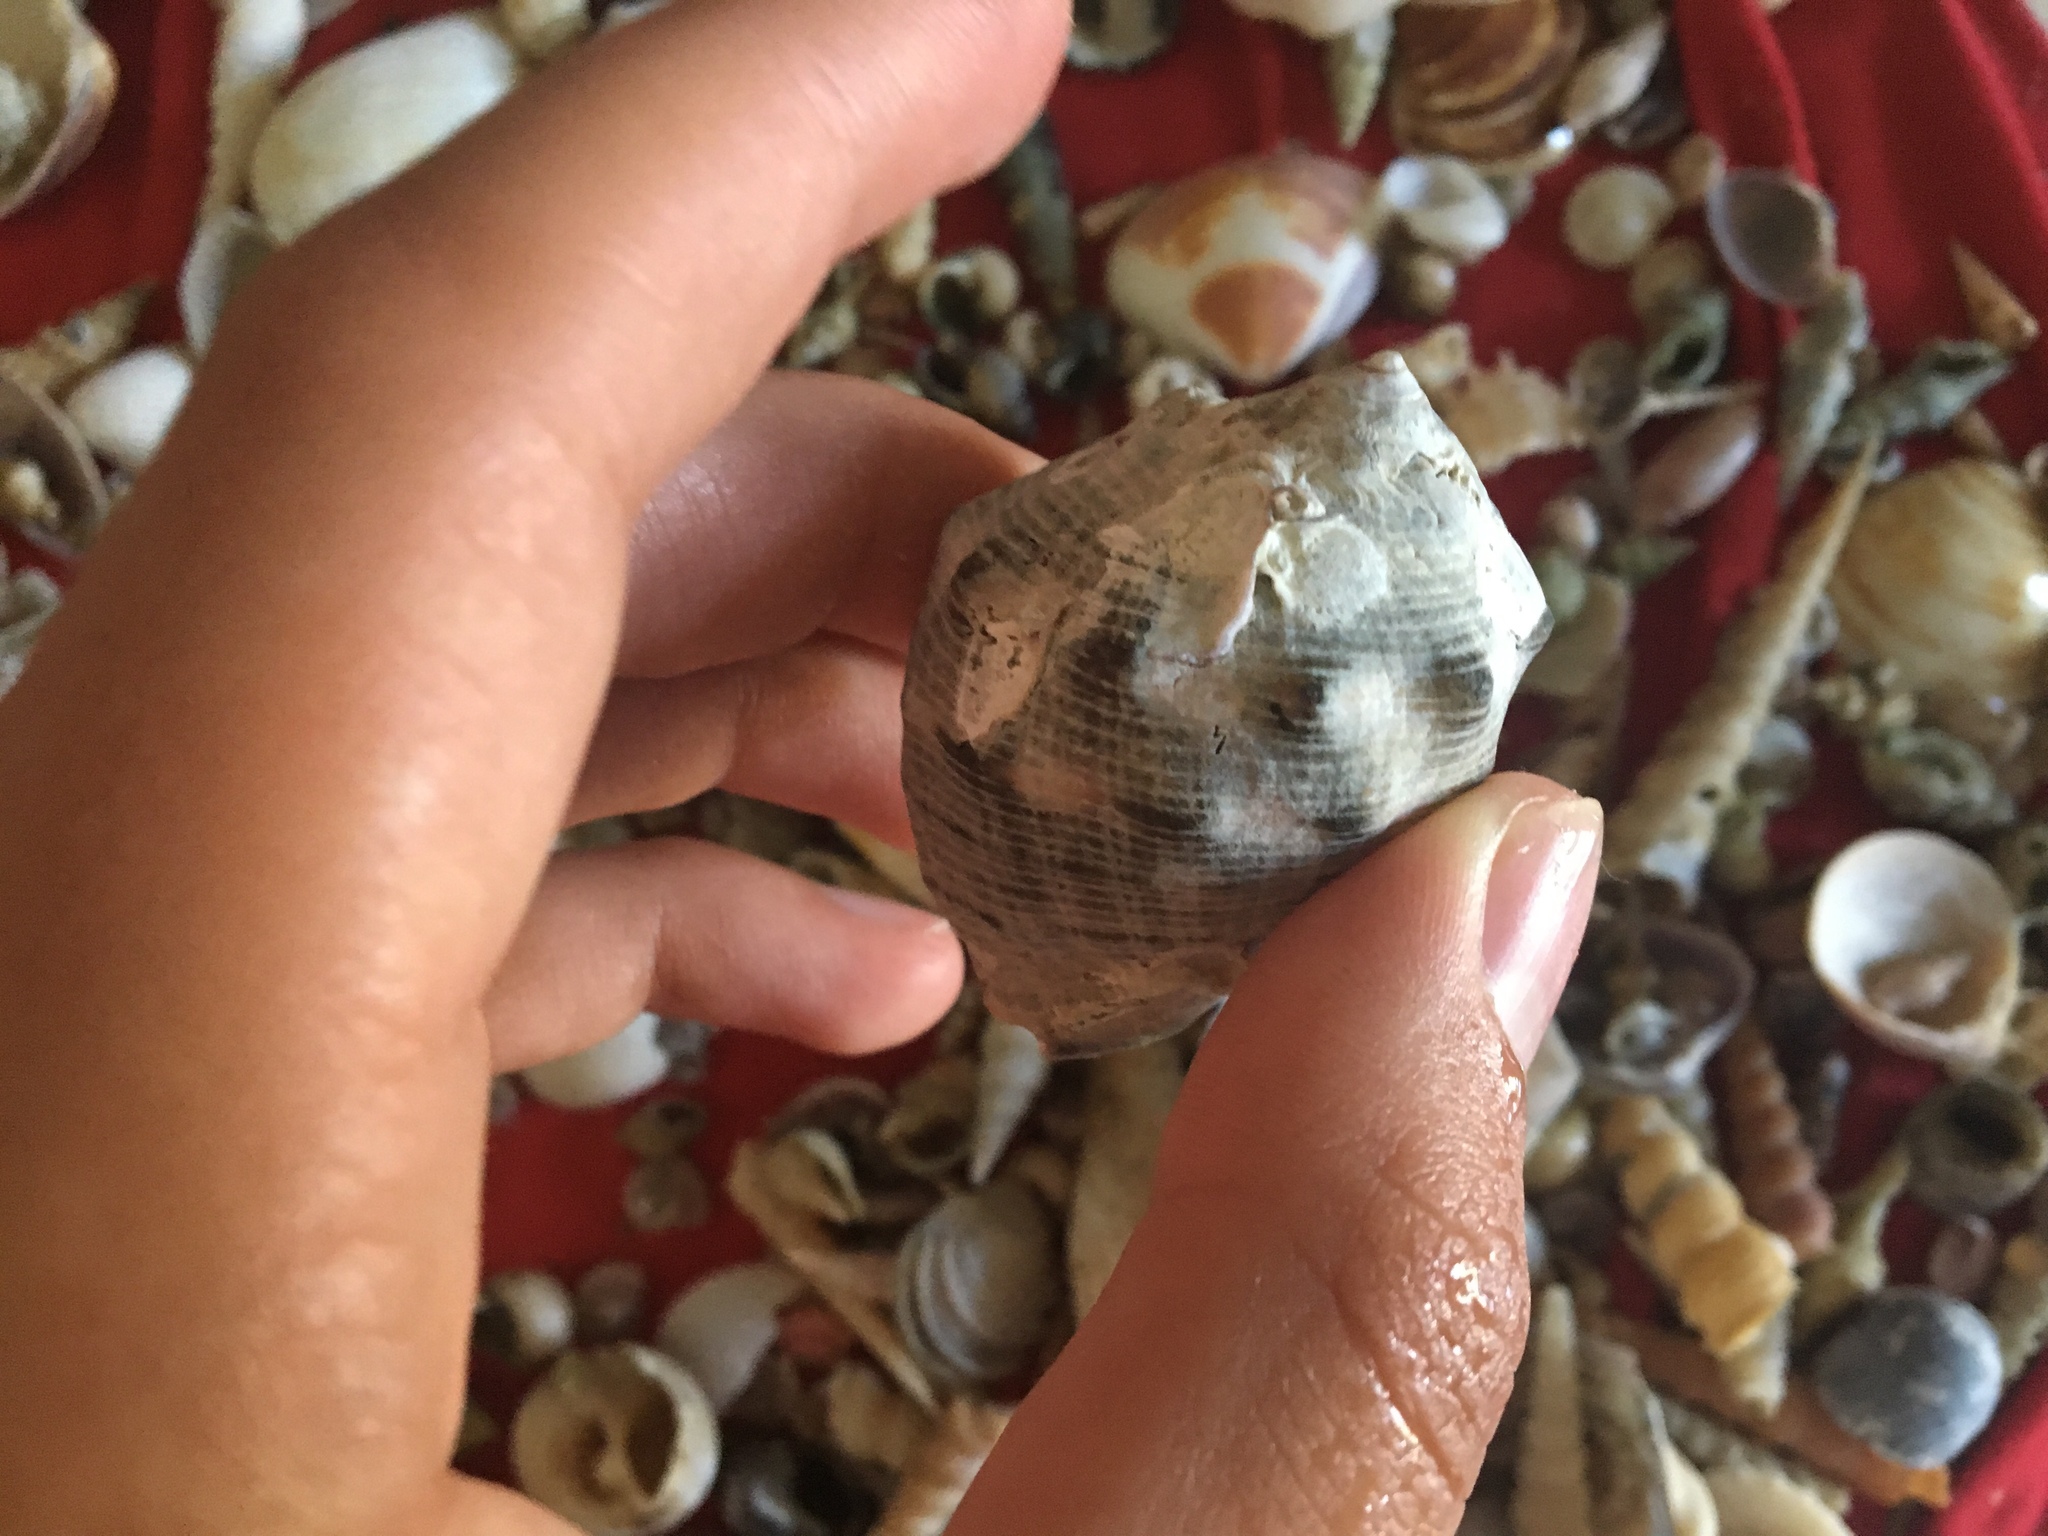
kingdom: Animalia
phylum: Mollusca
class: Gastropoda
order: Neogastropoda
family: Muricidae
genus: Purpura
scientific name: Purpura bufo
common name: Toad purple
